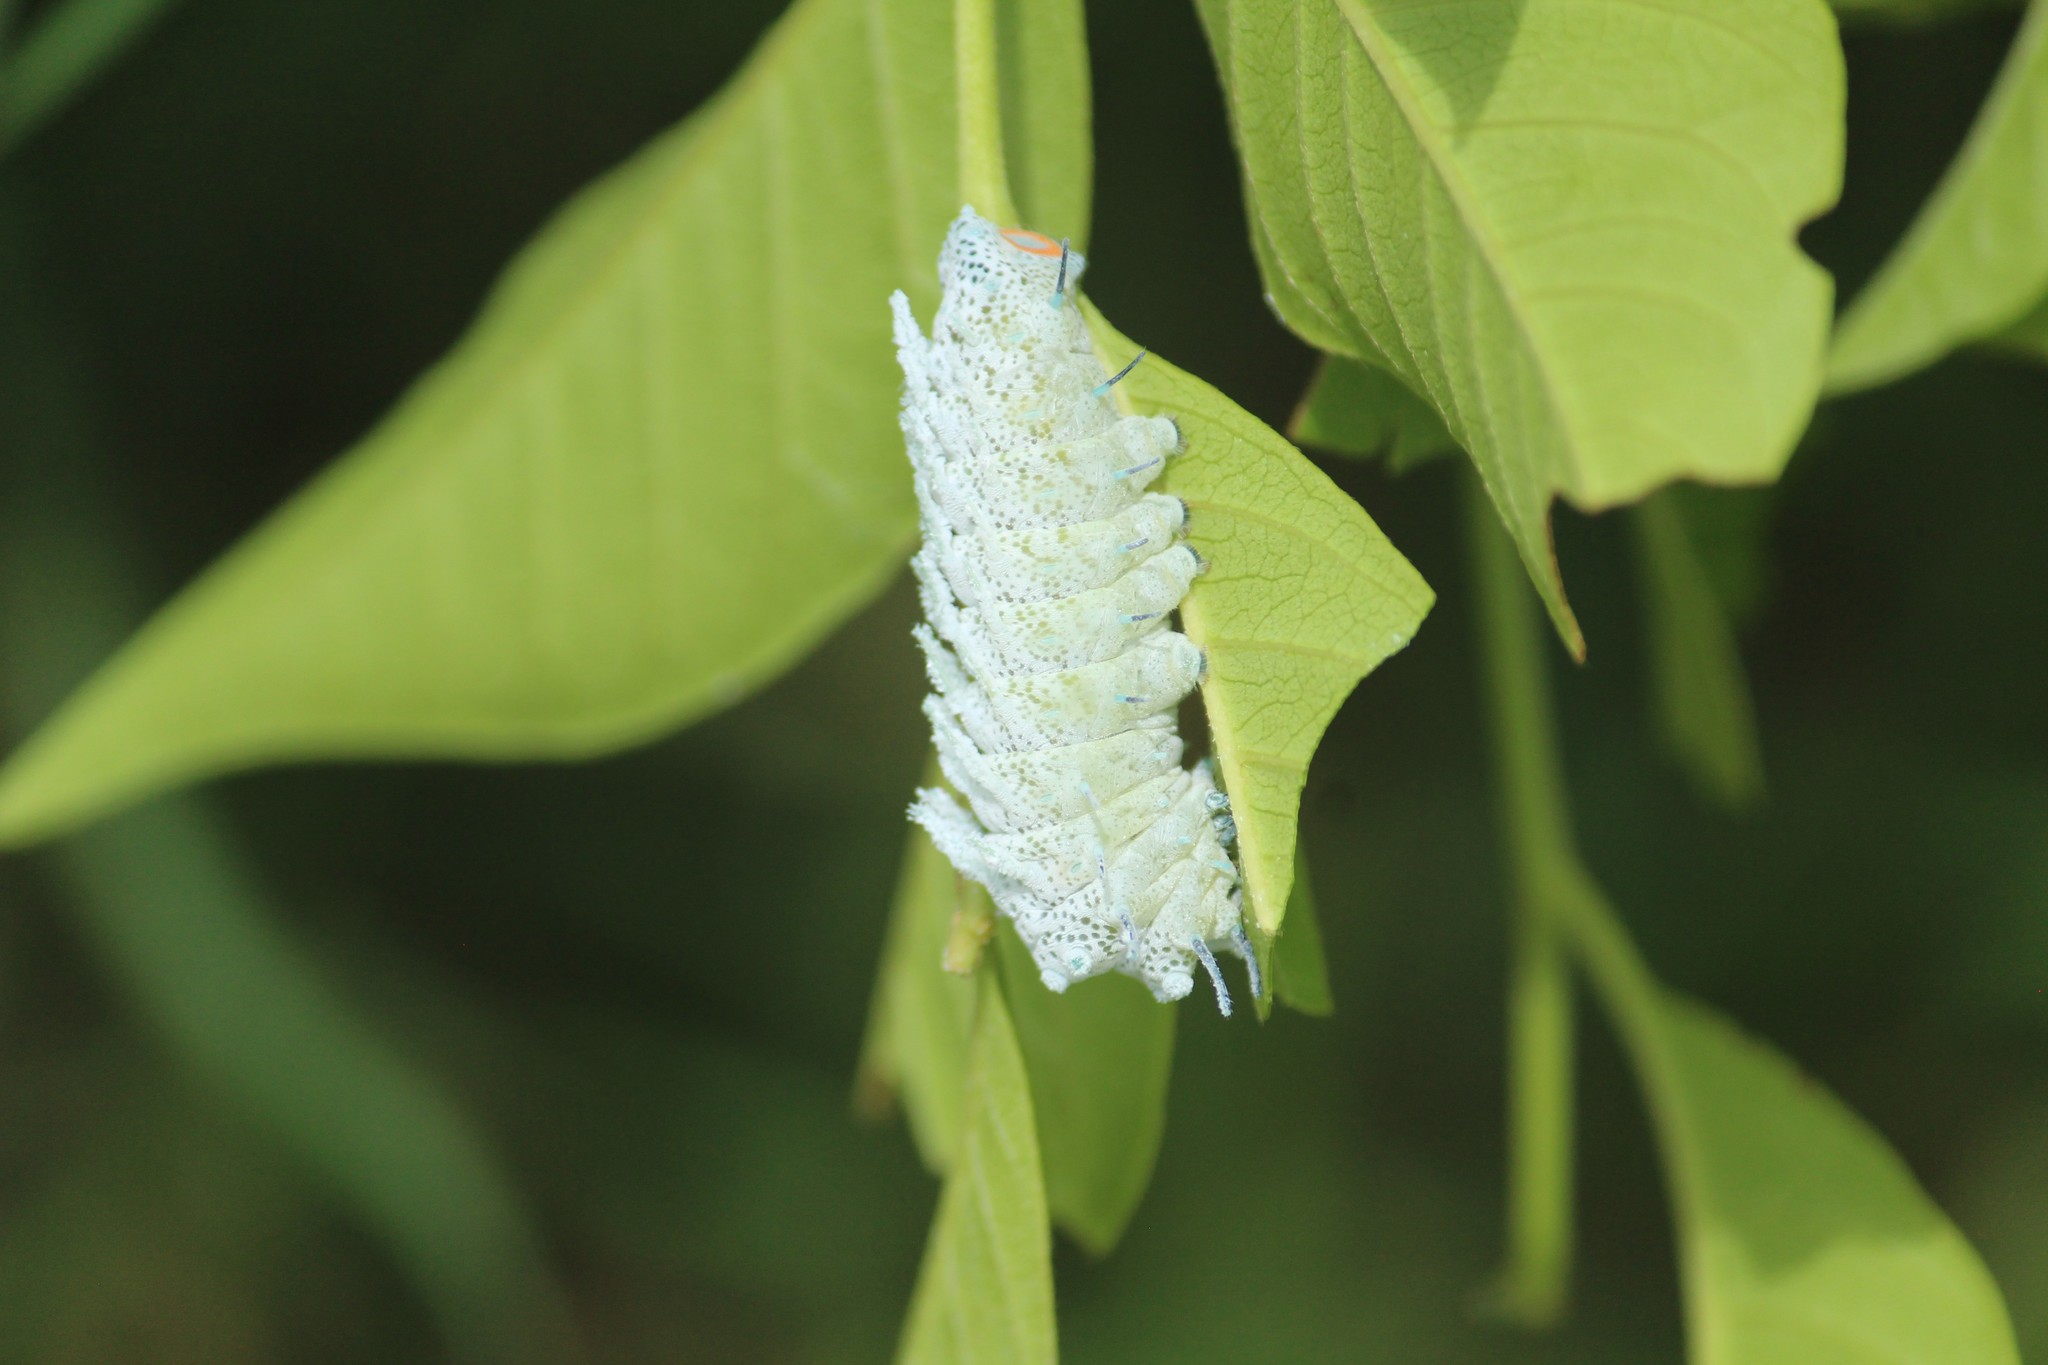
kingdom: Animalia
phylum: Arthropoda
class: Insecta
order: Lepidoptera
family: Saturniidae
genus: Attacus
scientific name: Attacus taprobanis
